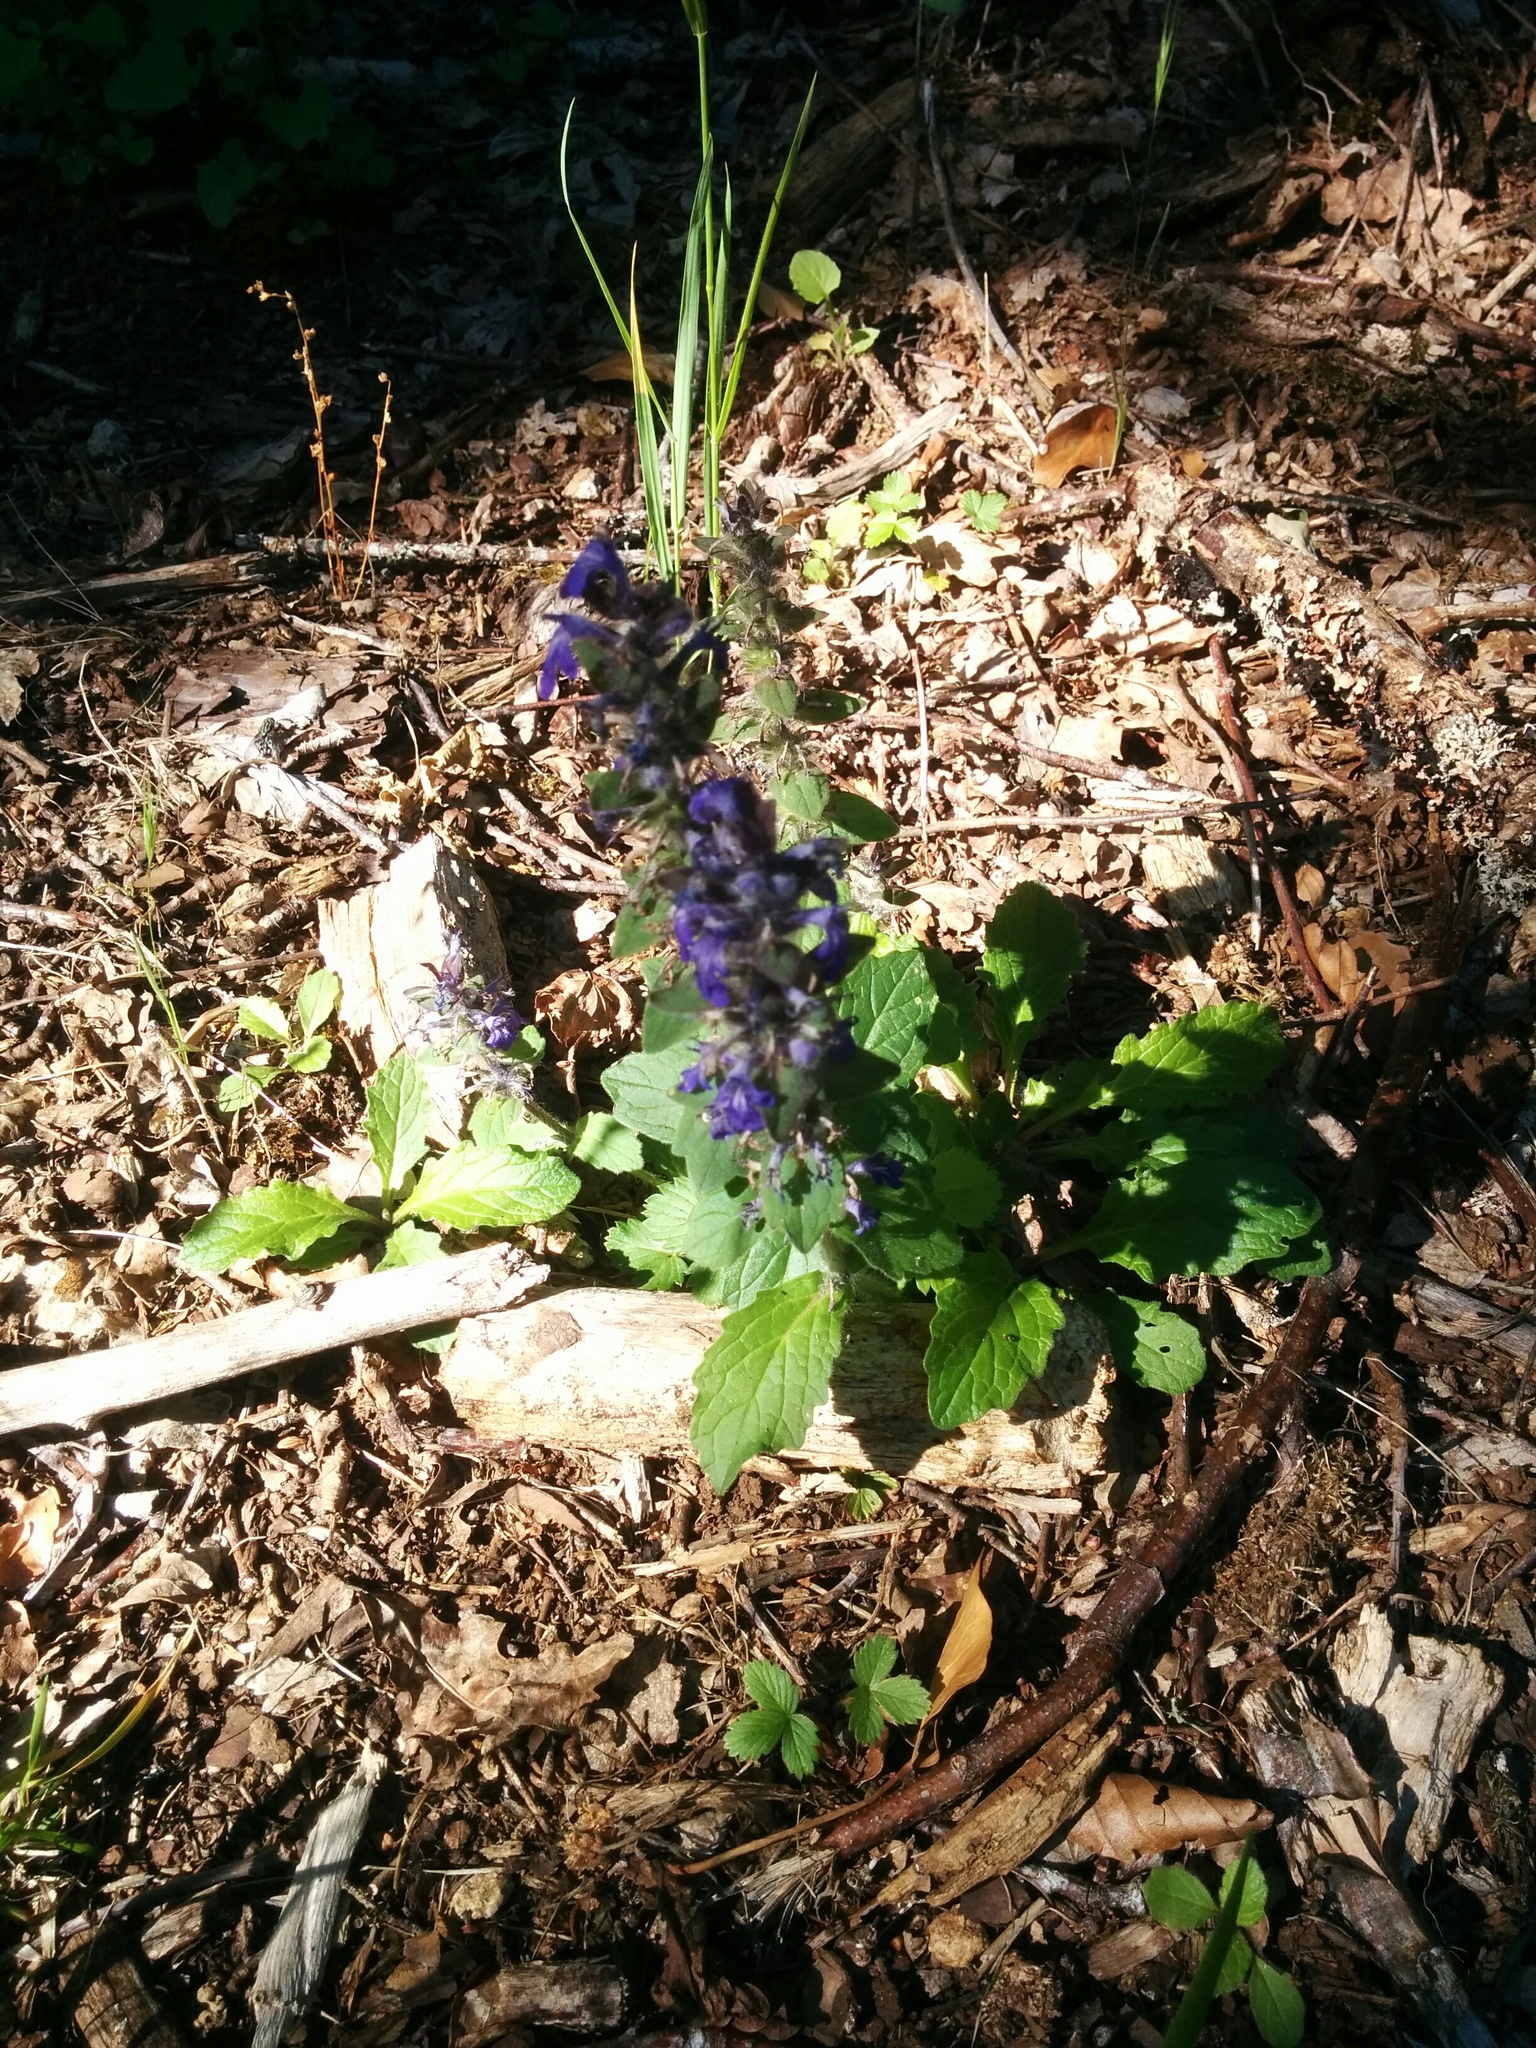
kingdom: Plantae
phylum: Tracheophyta
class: Magnoliopsida
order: Lamiales
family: Lamiaceae
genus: Ajuga
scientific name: Ajuga genevensis
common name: Blue bugle
